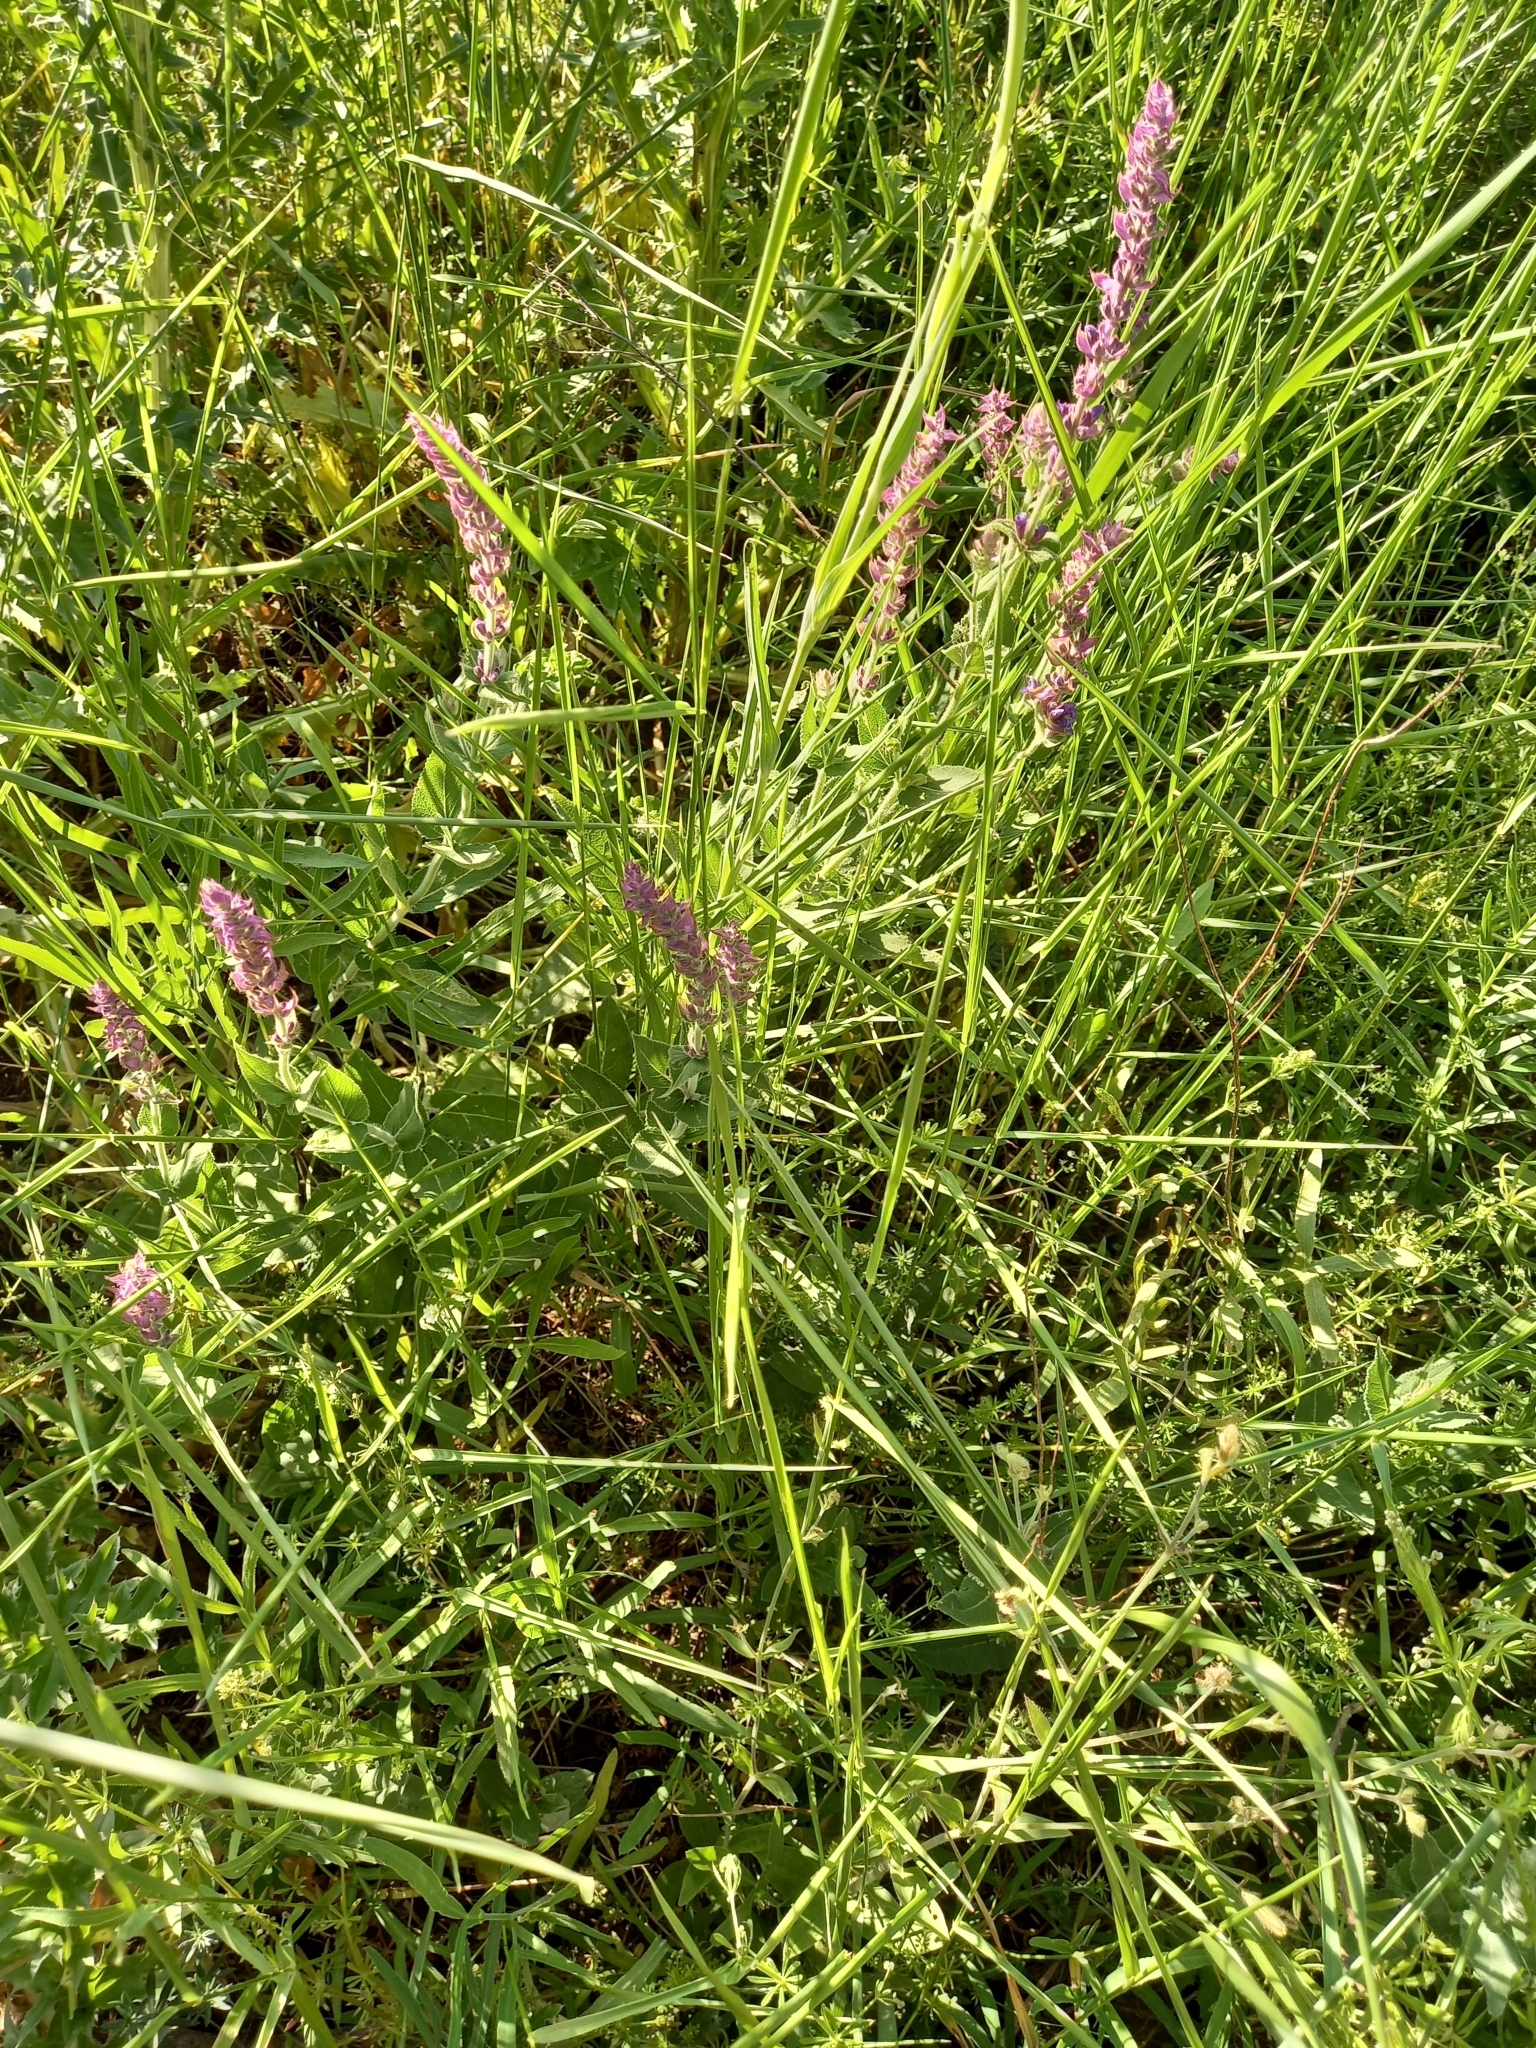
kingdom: Plantae
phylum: Tracheophyta
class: Magnoliopsida
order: Lamiales
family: Lamiaceae
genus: Salvia
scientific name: Salvia nemorosa
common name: Balkan clary
